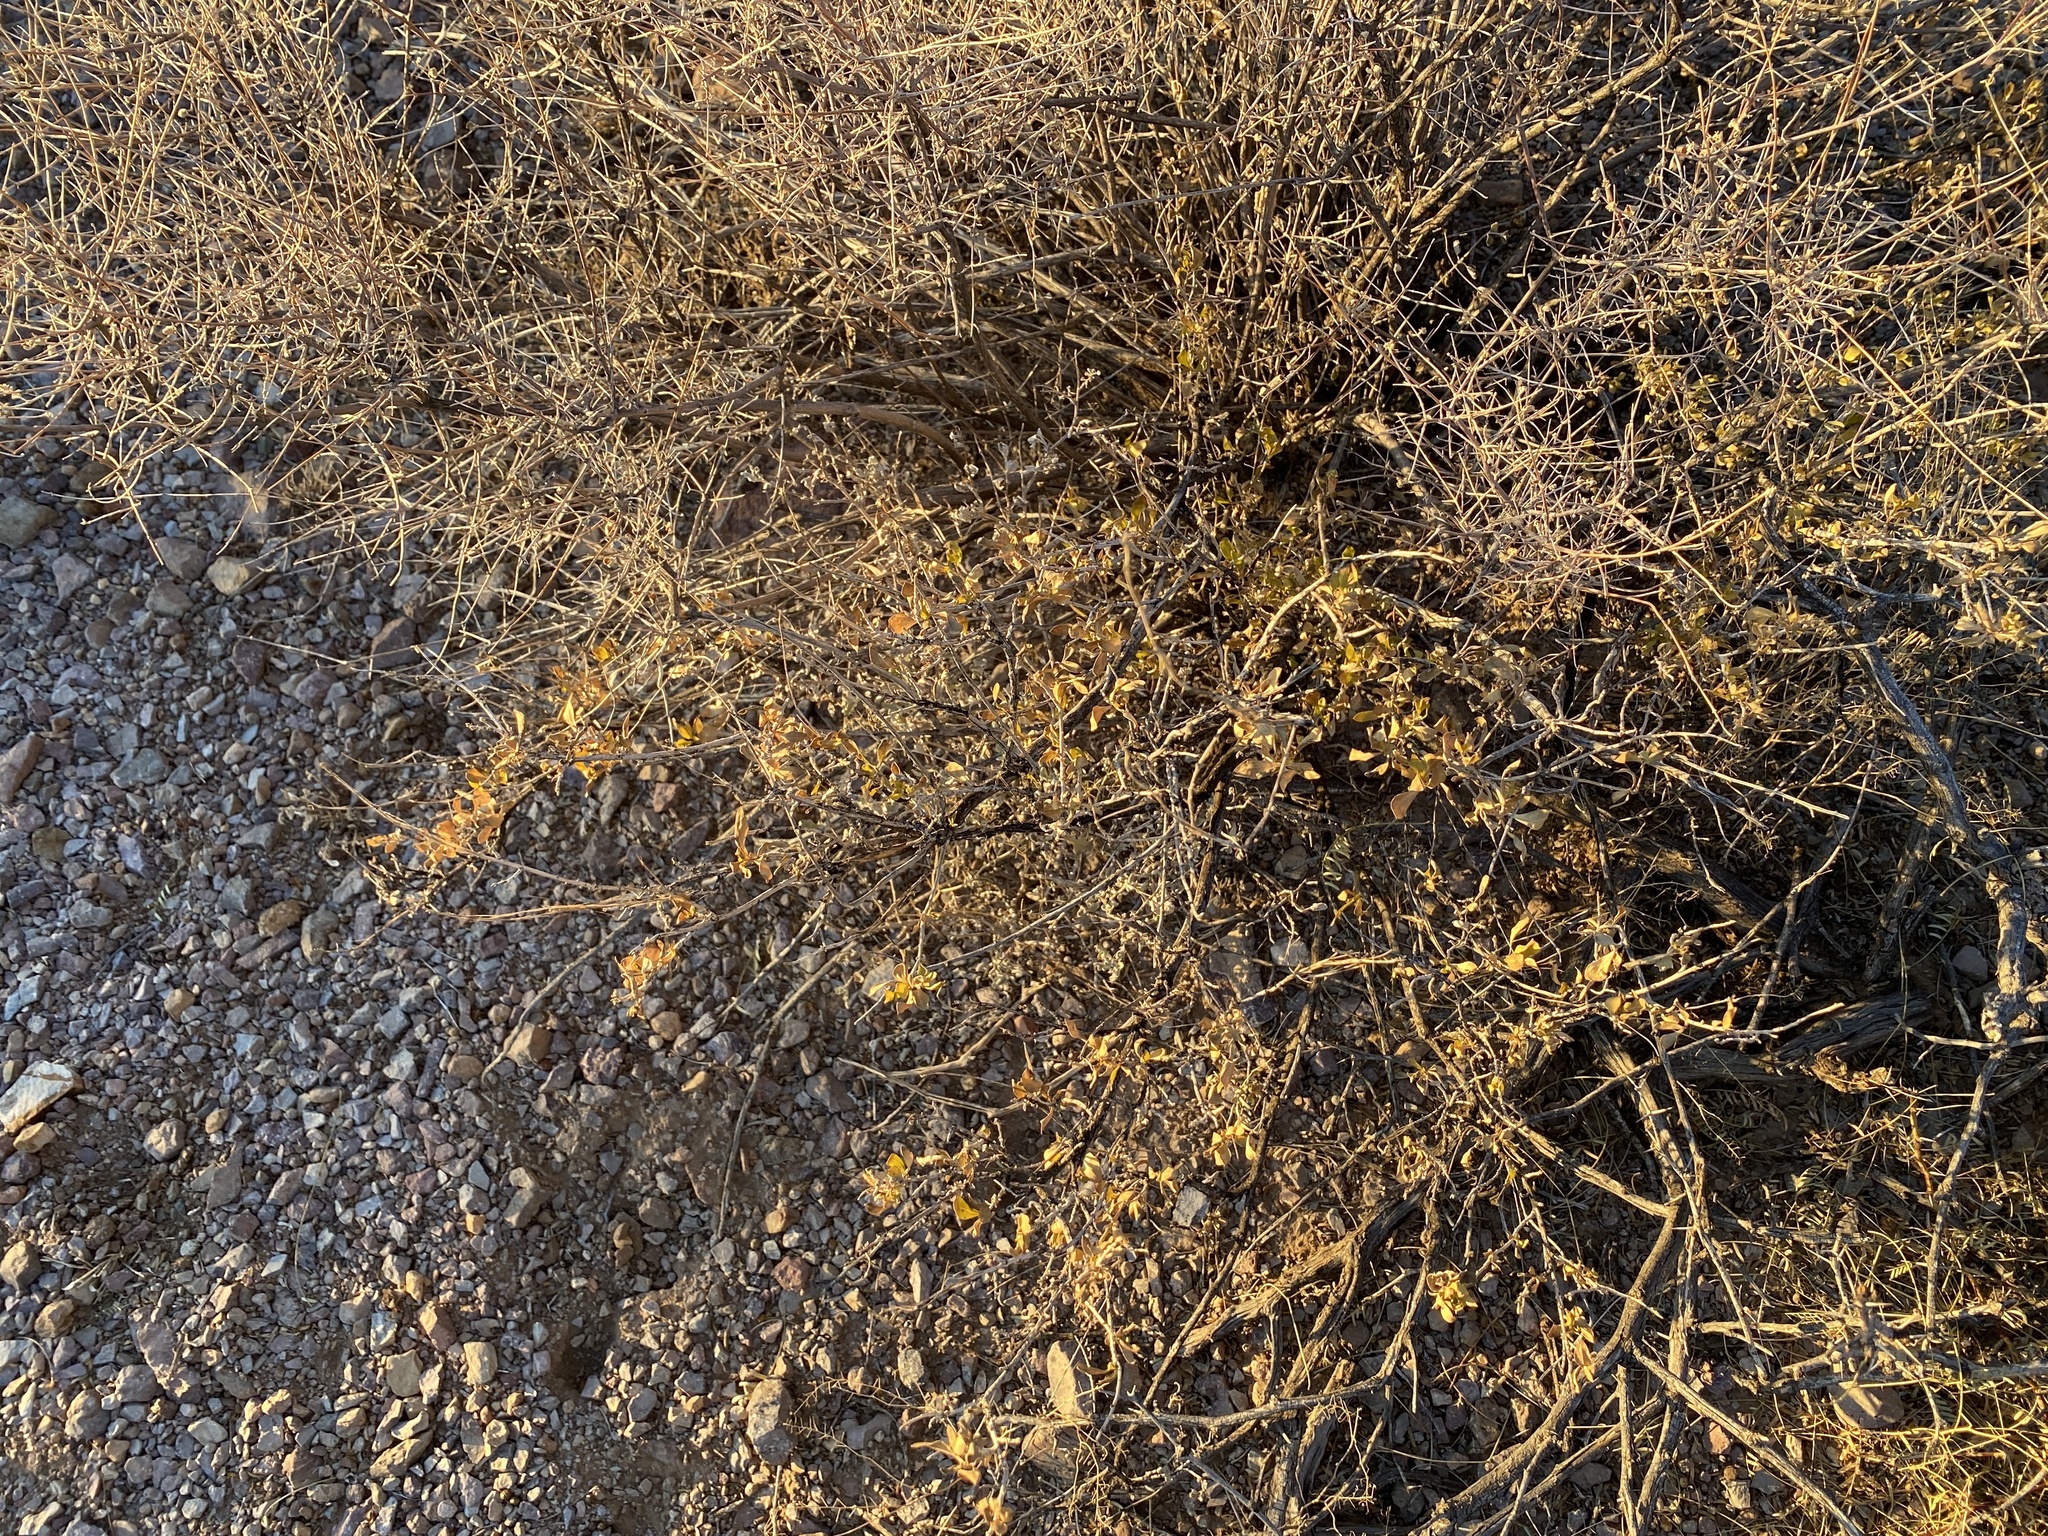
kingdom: Plantae
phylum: Tracheophyta
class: Magnoliopsida
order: Asterales
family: Asteraceae
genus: Flourensia
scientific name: Flourensia cernua
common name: Varnishbush
